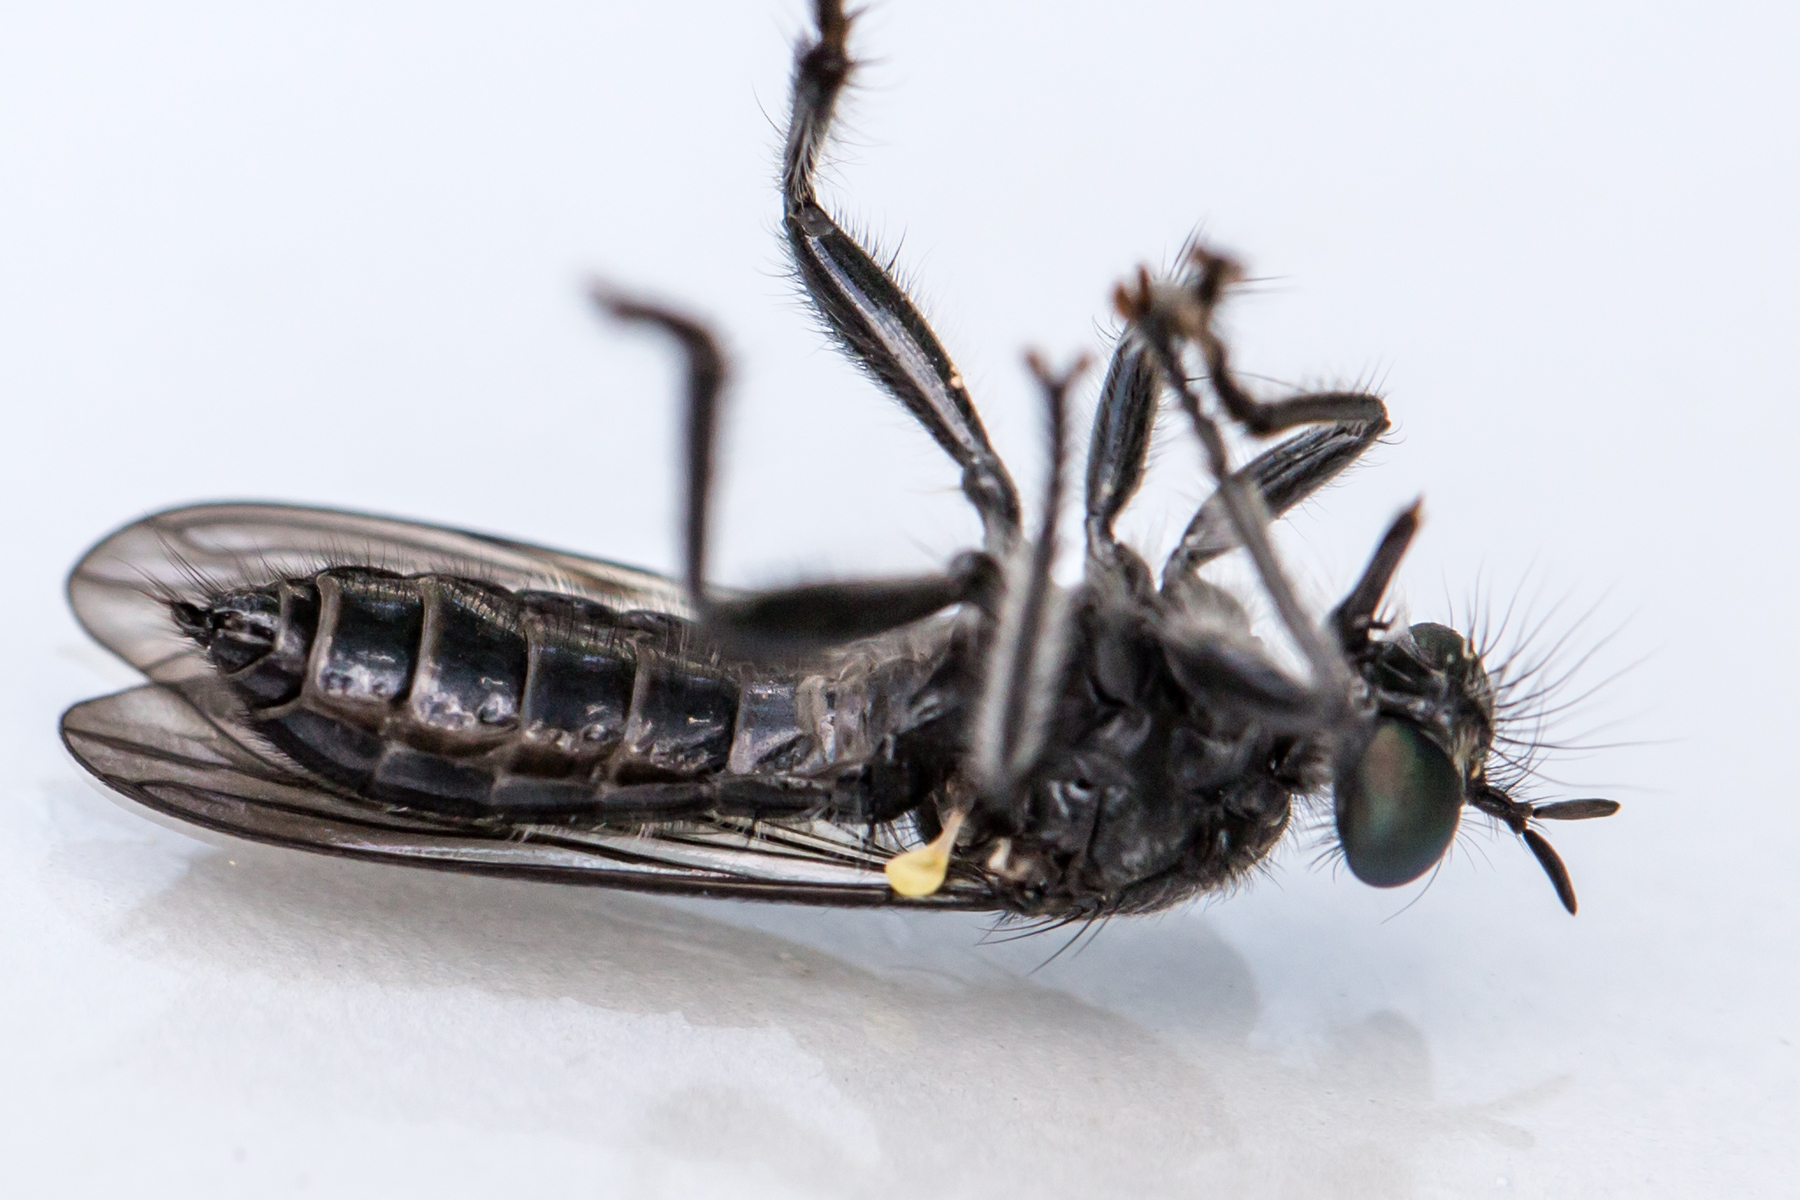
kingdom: Animalia
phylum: Arthropoda
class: Insecta
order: Diptera
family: Asilidae
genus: Laphria
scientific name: Laphria sicula
